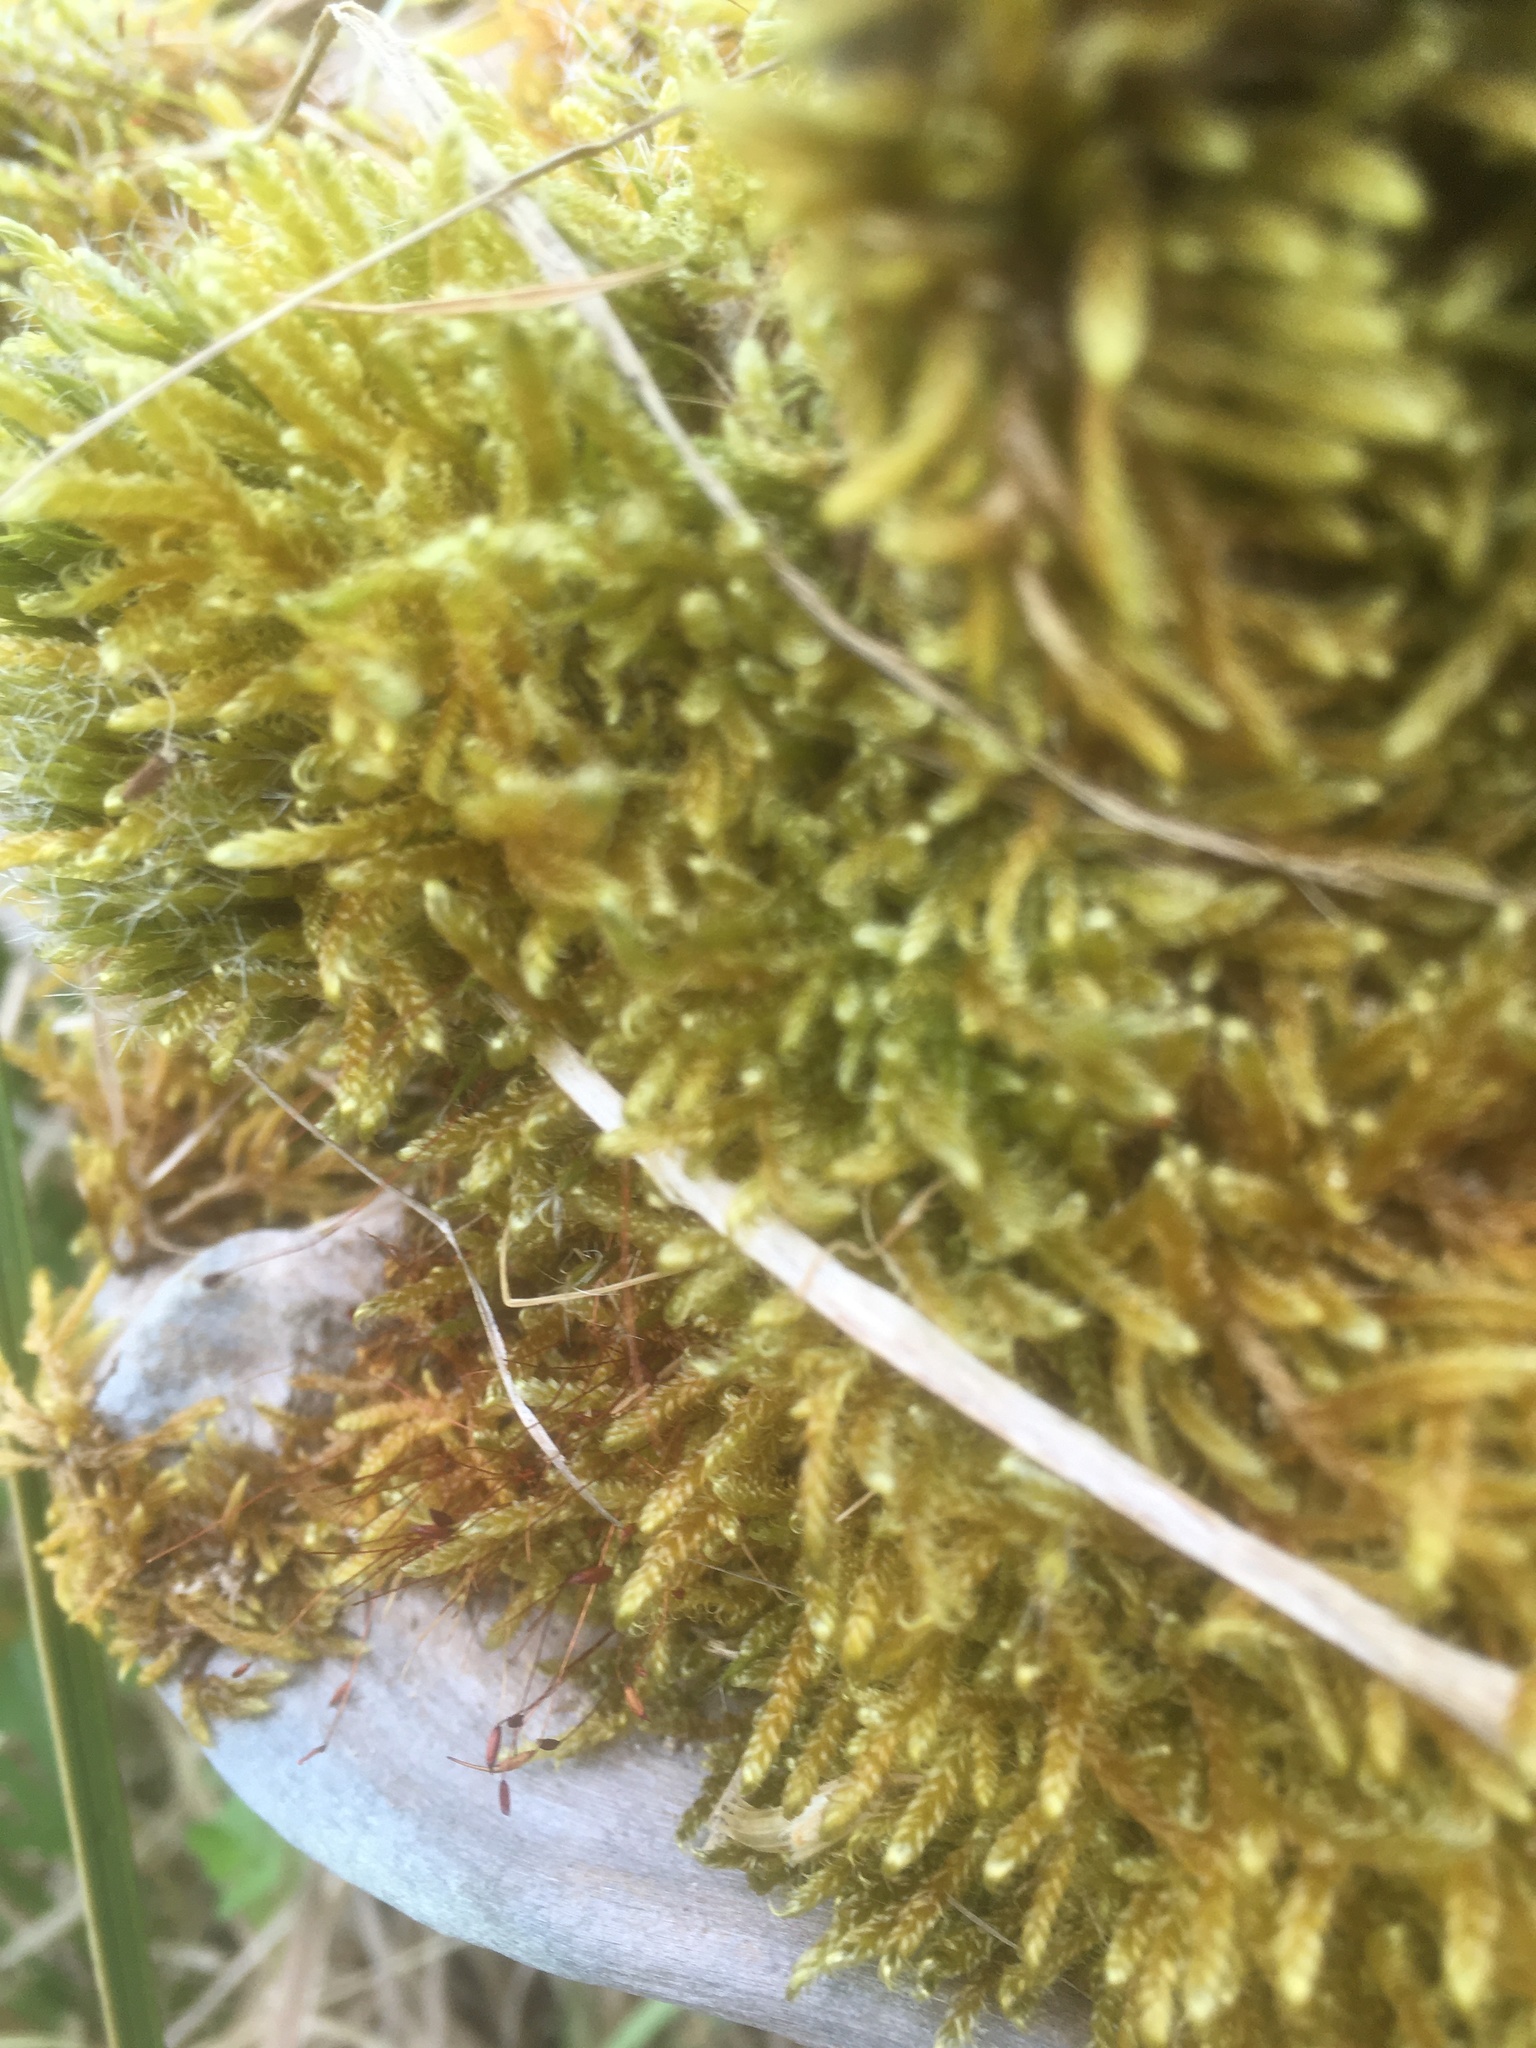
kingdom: Plantae
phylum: Bryophyta
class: Bryopsida
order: Hypnales
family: Hypnaceae
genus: Hypnum
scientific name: Hypnum cupressiforme
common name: Cypress-leaved plait-moss
